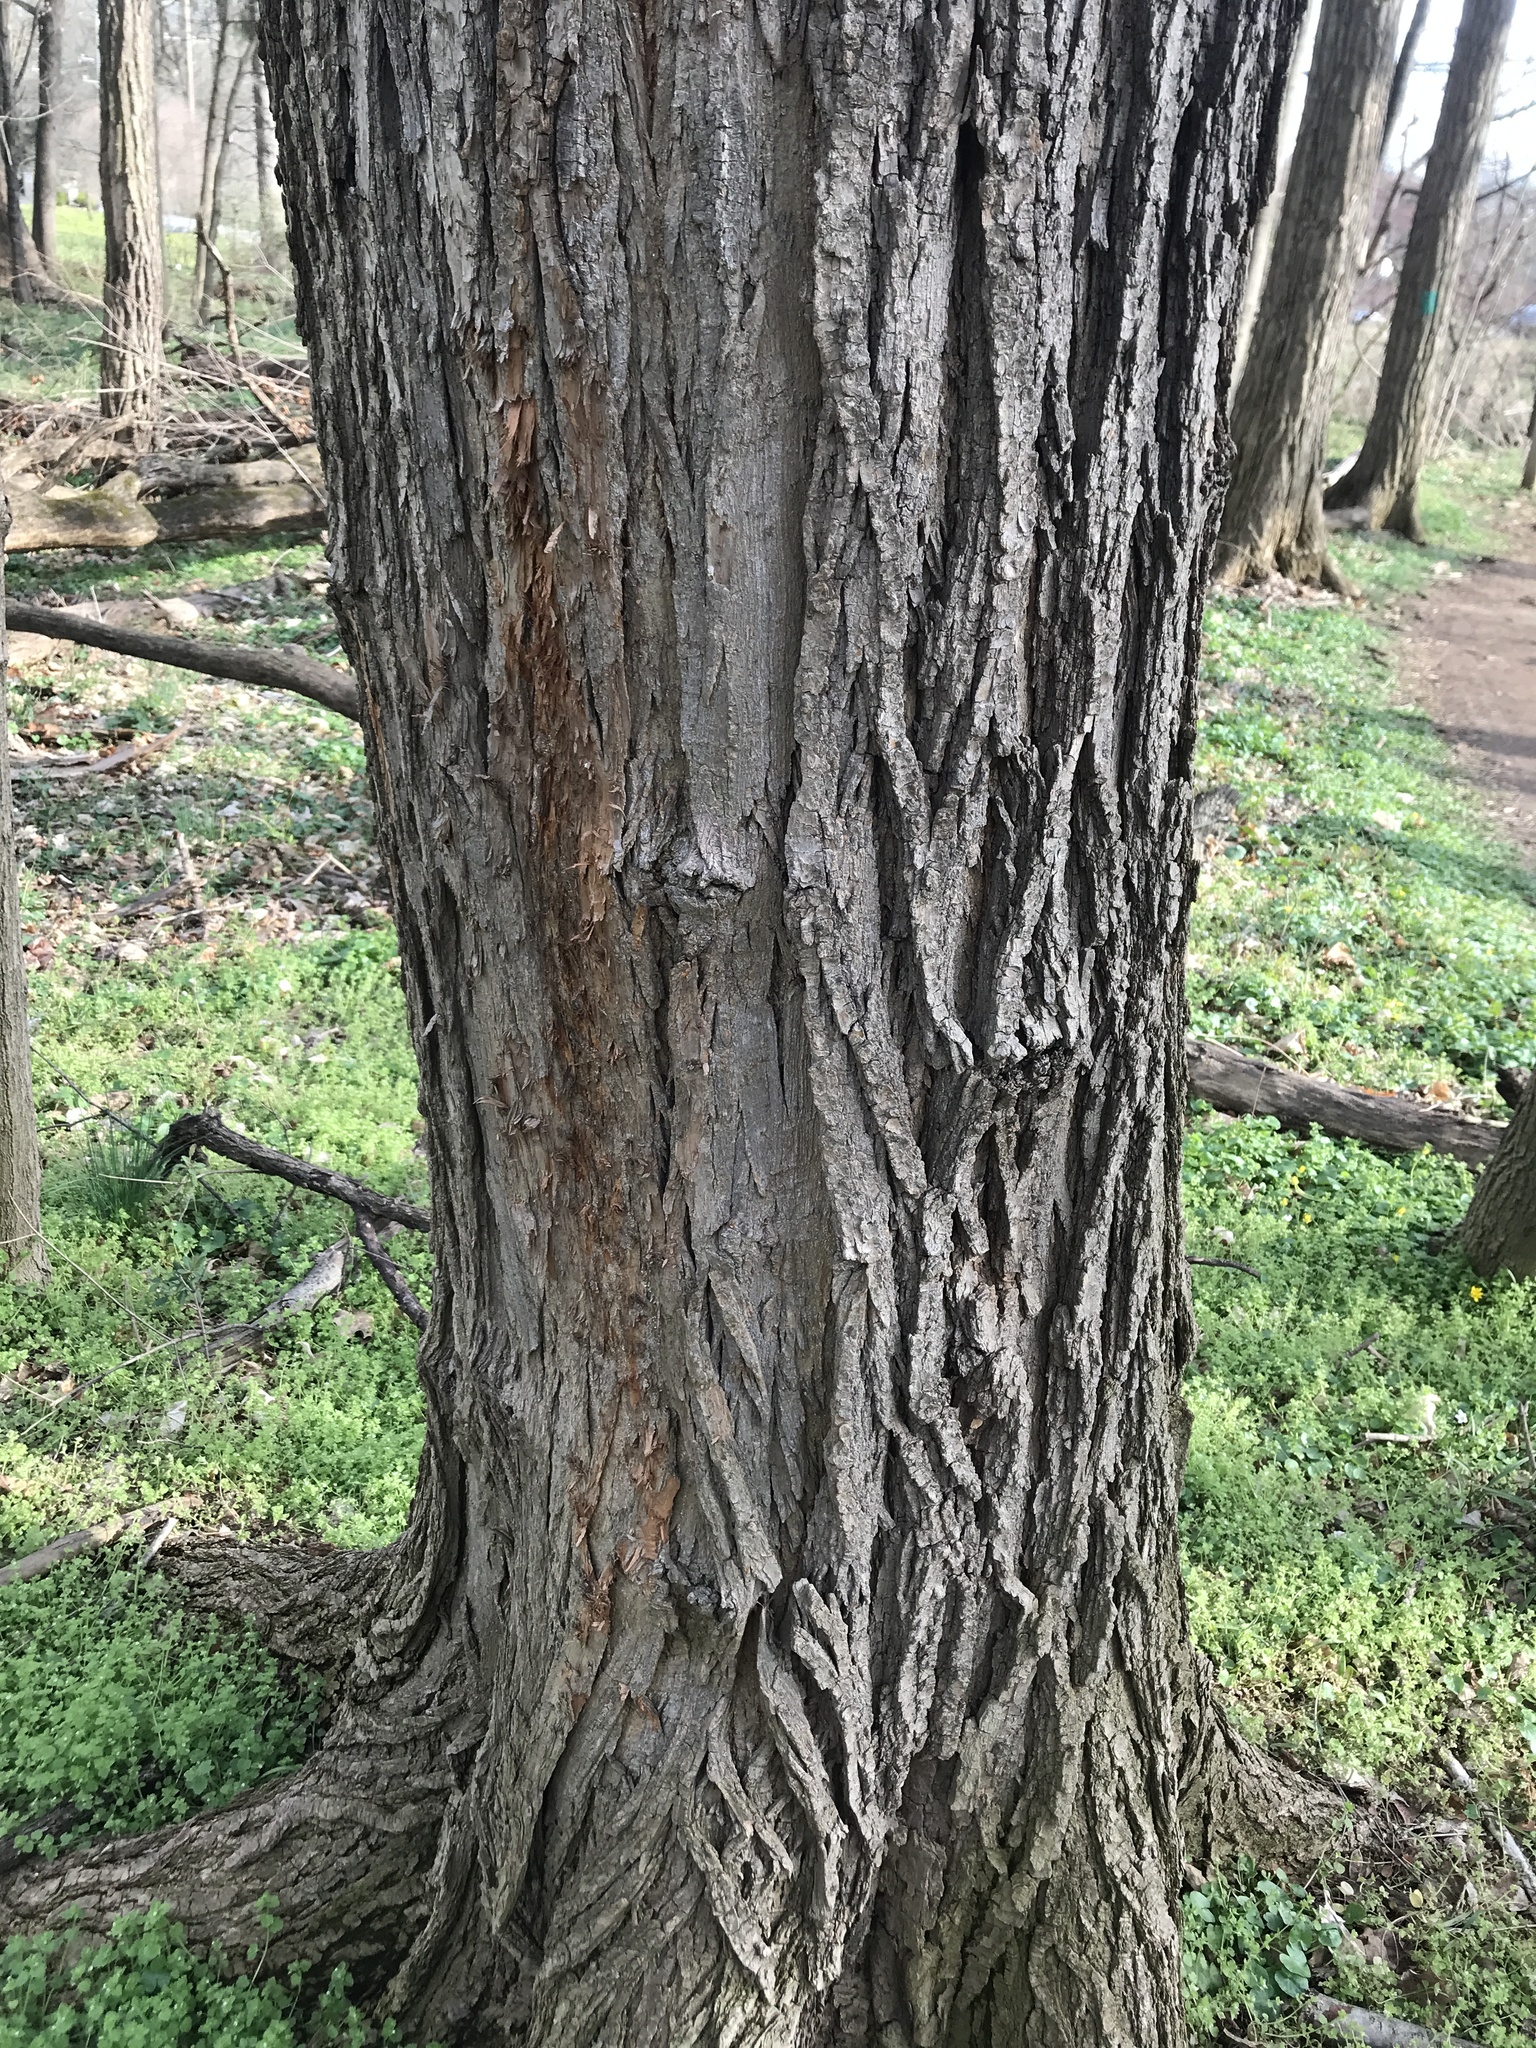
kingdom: Plantae
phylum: Tracheophyta
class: Magnoliopsida
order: Fabales
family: Fabaceae
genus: Robinia
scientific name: Robinia pseudoacacia
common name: Black locust
